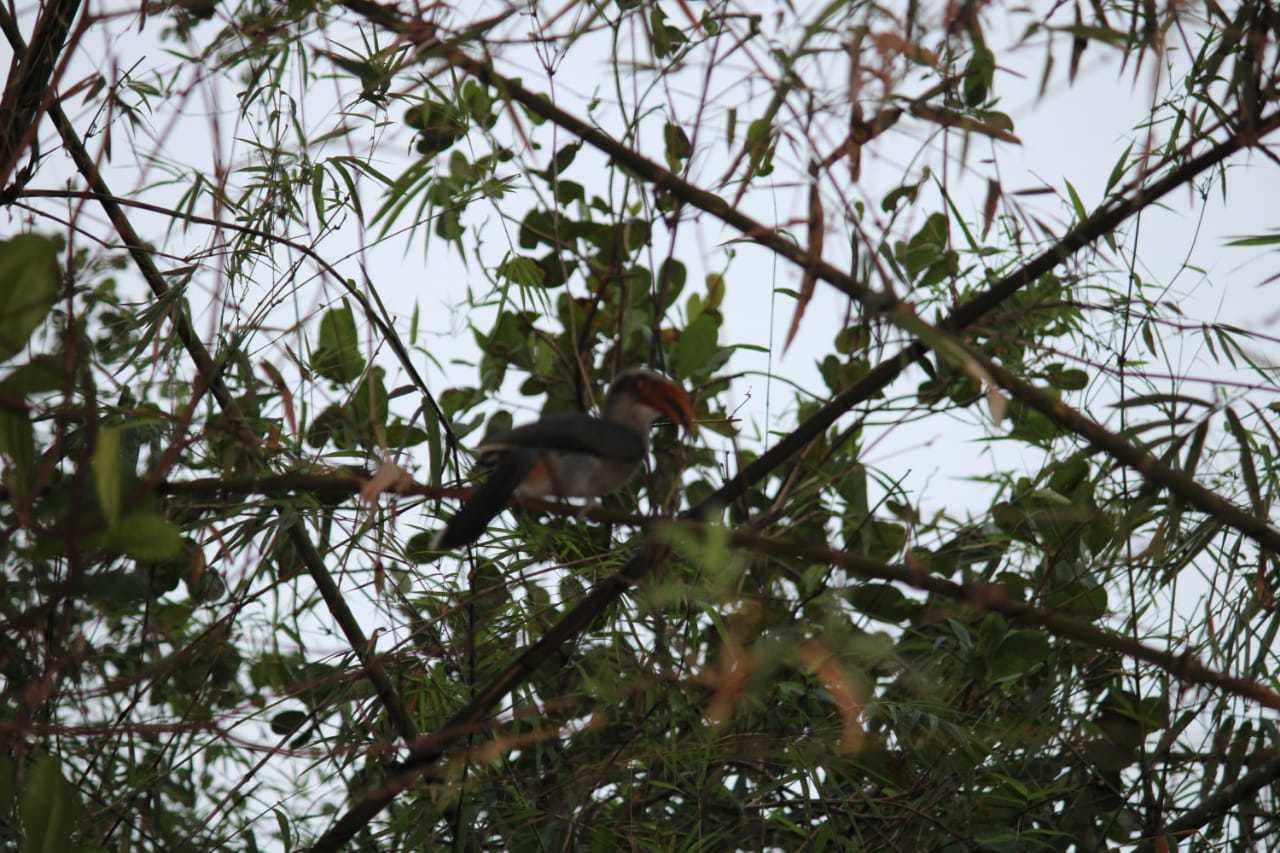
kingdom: Animalia
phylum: Chordata
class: Aves
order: Bucerotiformes
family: Bucerotidae
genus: Ocyceros
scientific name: Ocyceros griseus
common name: Malabar grey hornbill
